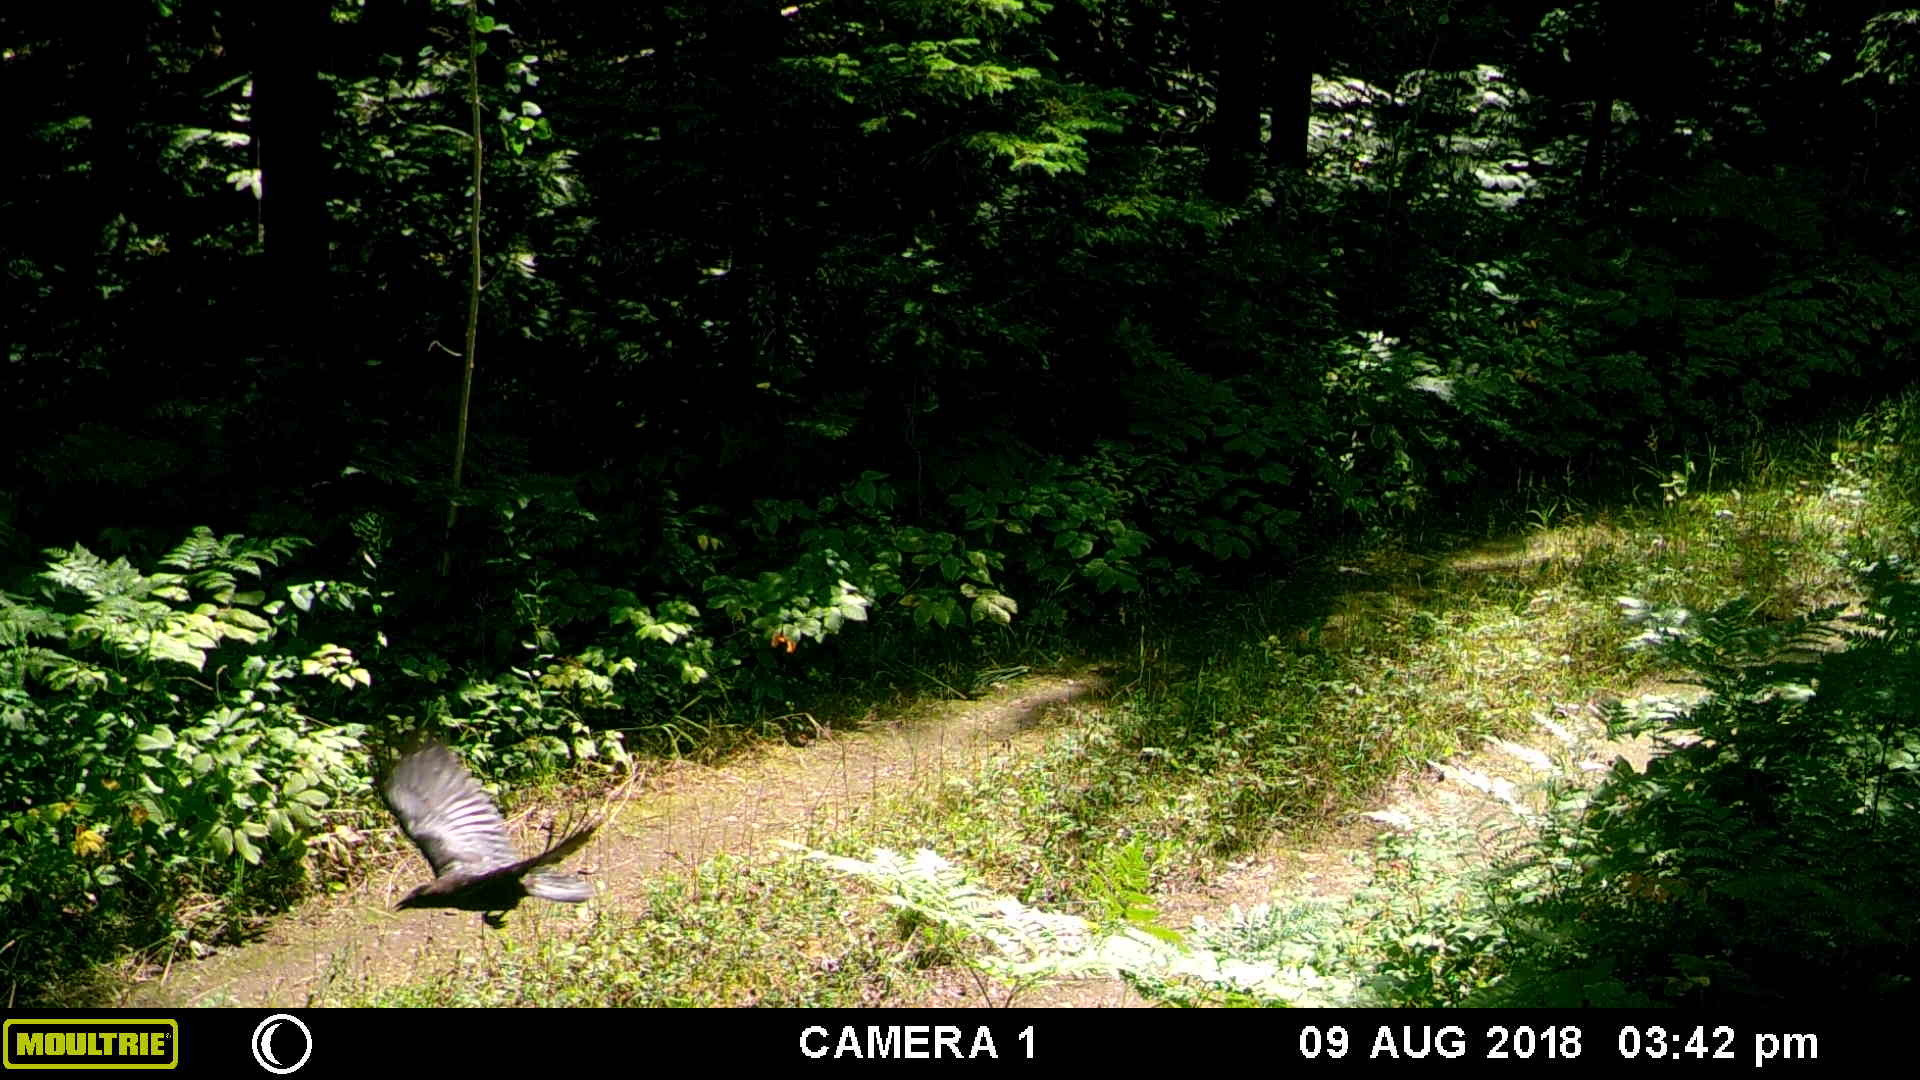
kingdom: Animalia
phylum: Chordata
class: Aves
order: Passeriformes
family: Corvidae
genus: Corvus
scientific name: Corvus brachyrhynchos
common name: American crow
